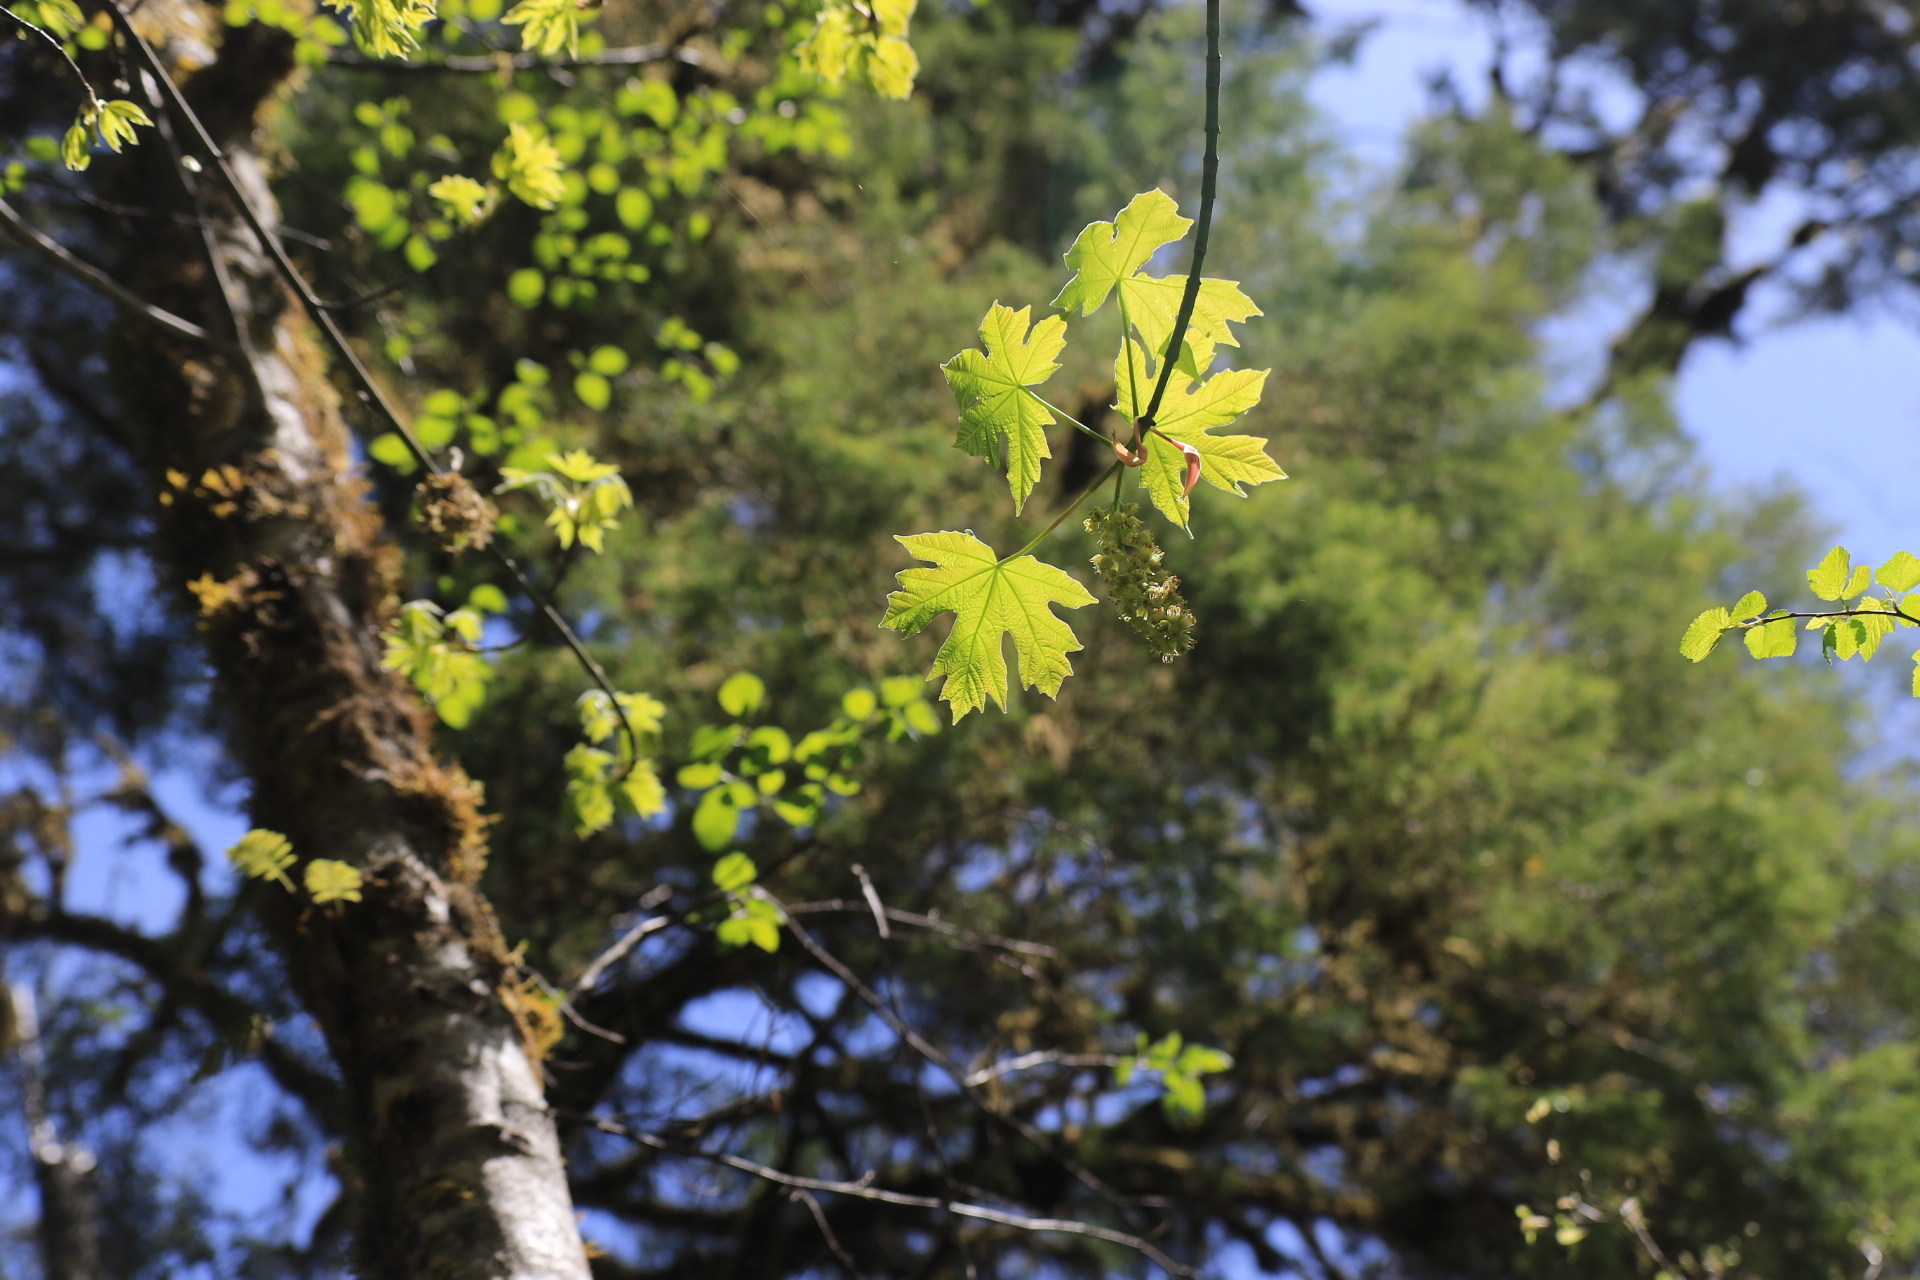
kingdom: Plantae
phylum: Tracheophyta
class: Magnoliopsida
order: Sapindales
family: Sapindaceae
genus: Acer
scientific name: Acer macrophyllum
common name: Oregon maple
